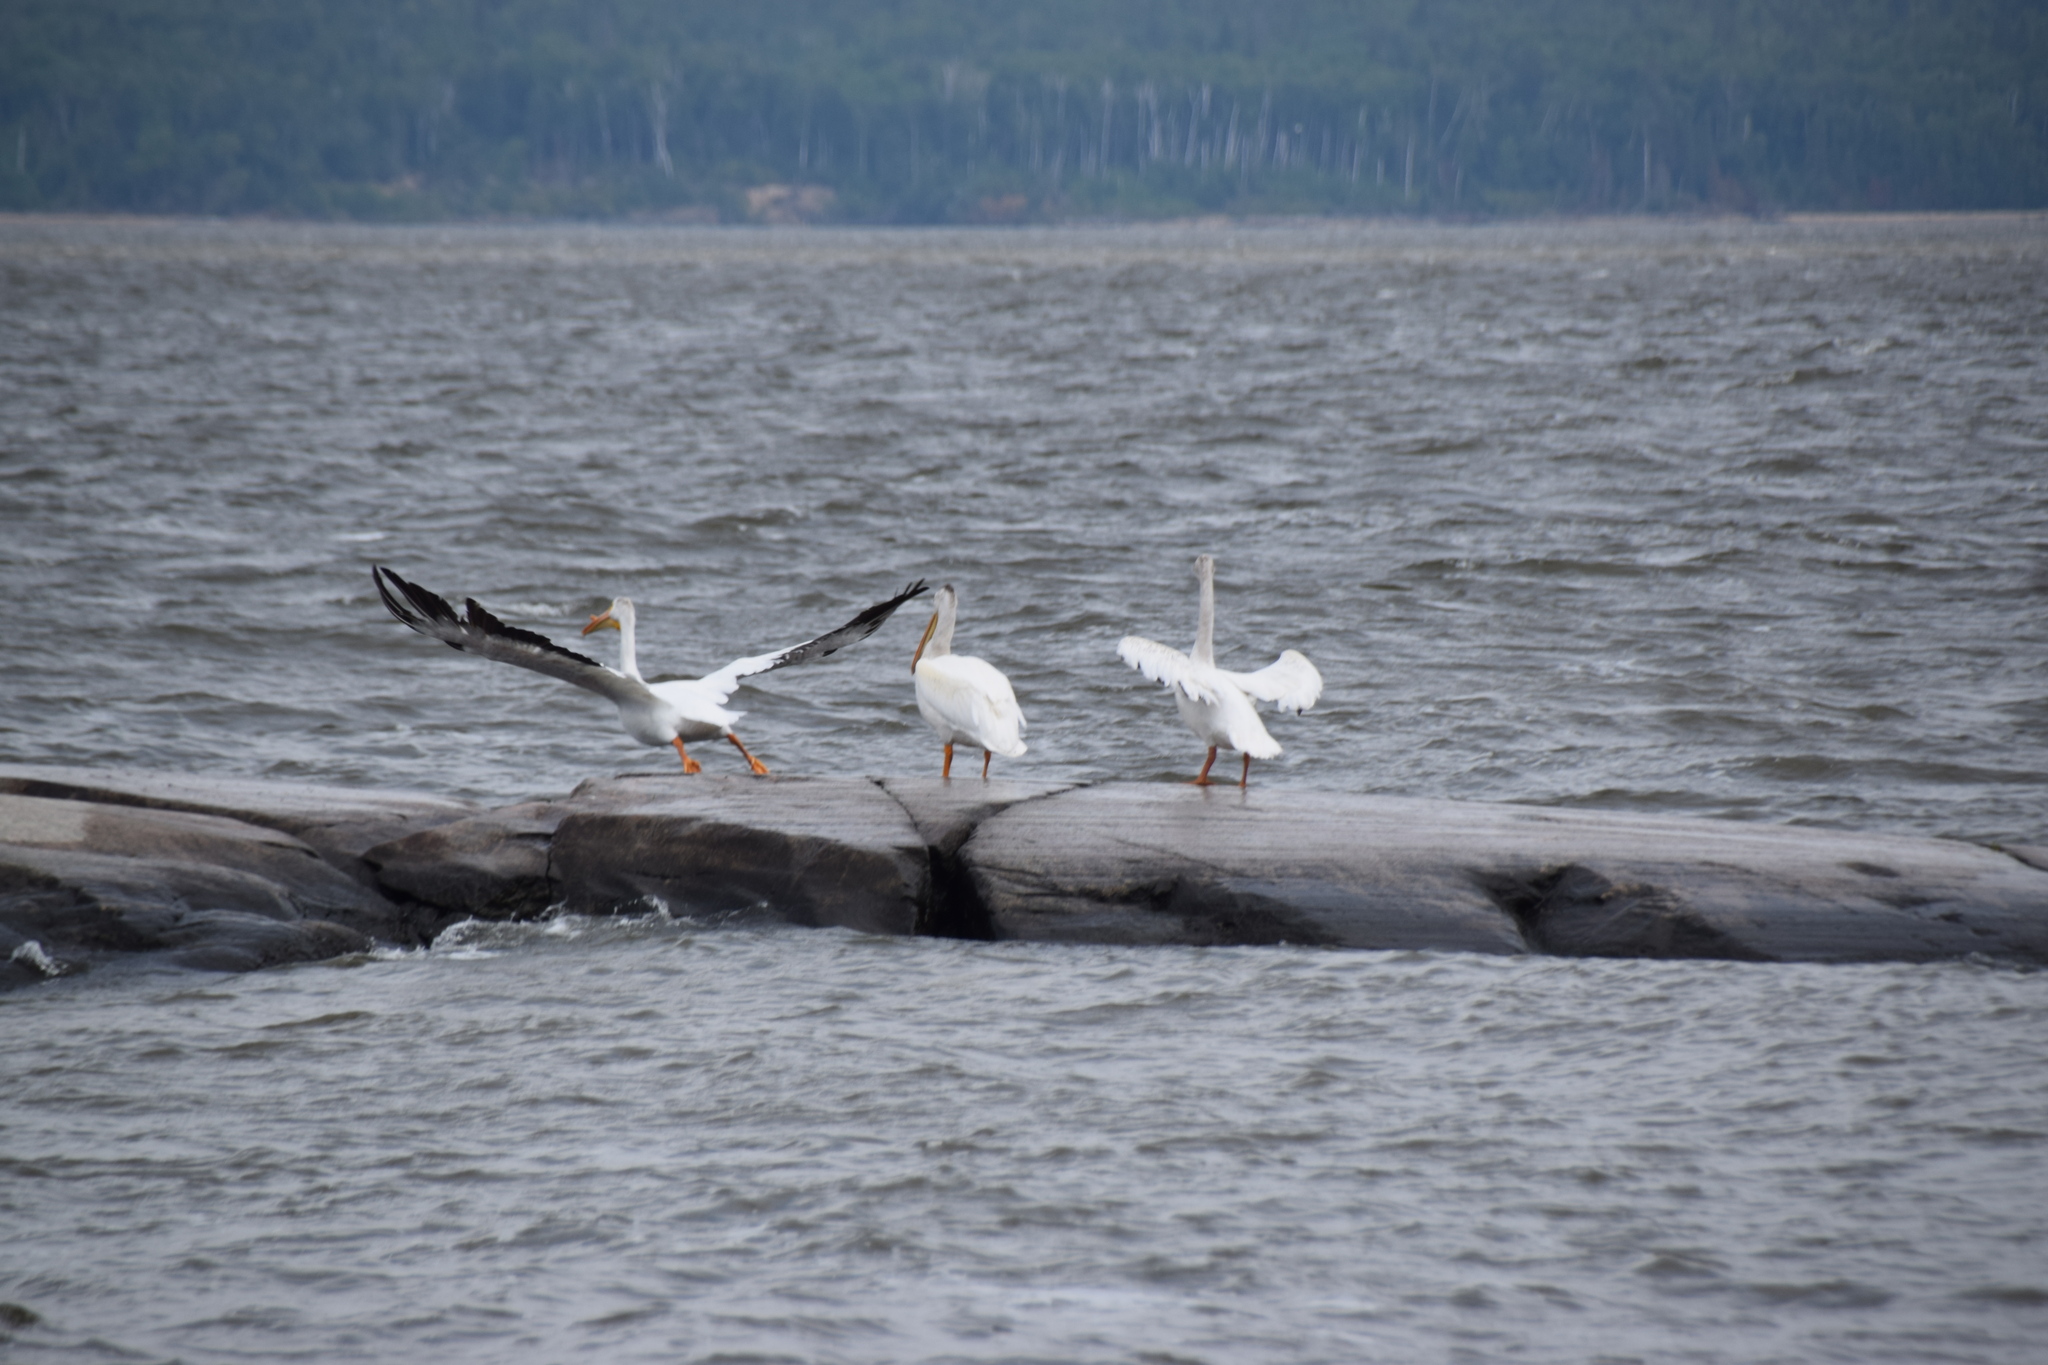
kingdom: Animalia
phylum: Chordata
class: Aves
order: Pelecaniformes
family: Pelecanidae
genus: Pelecanus
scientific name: Pelecanus erythrorhynchos
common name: American white pelican
